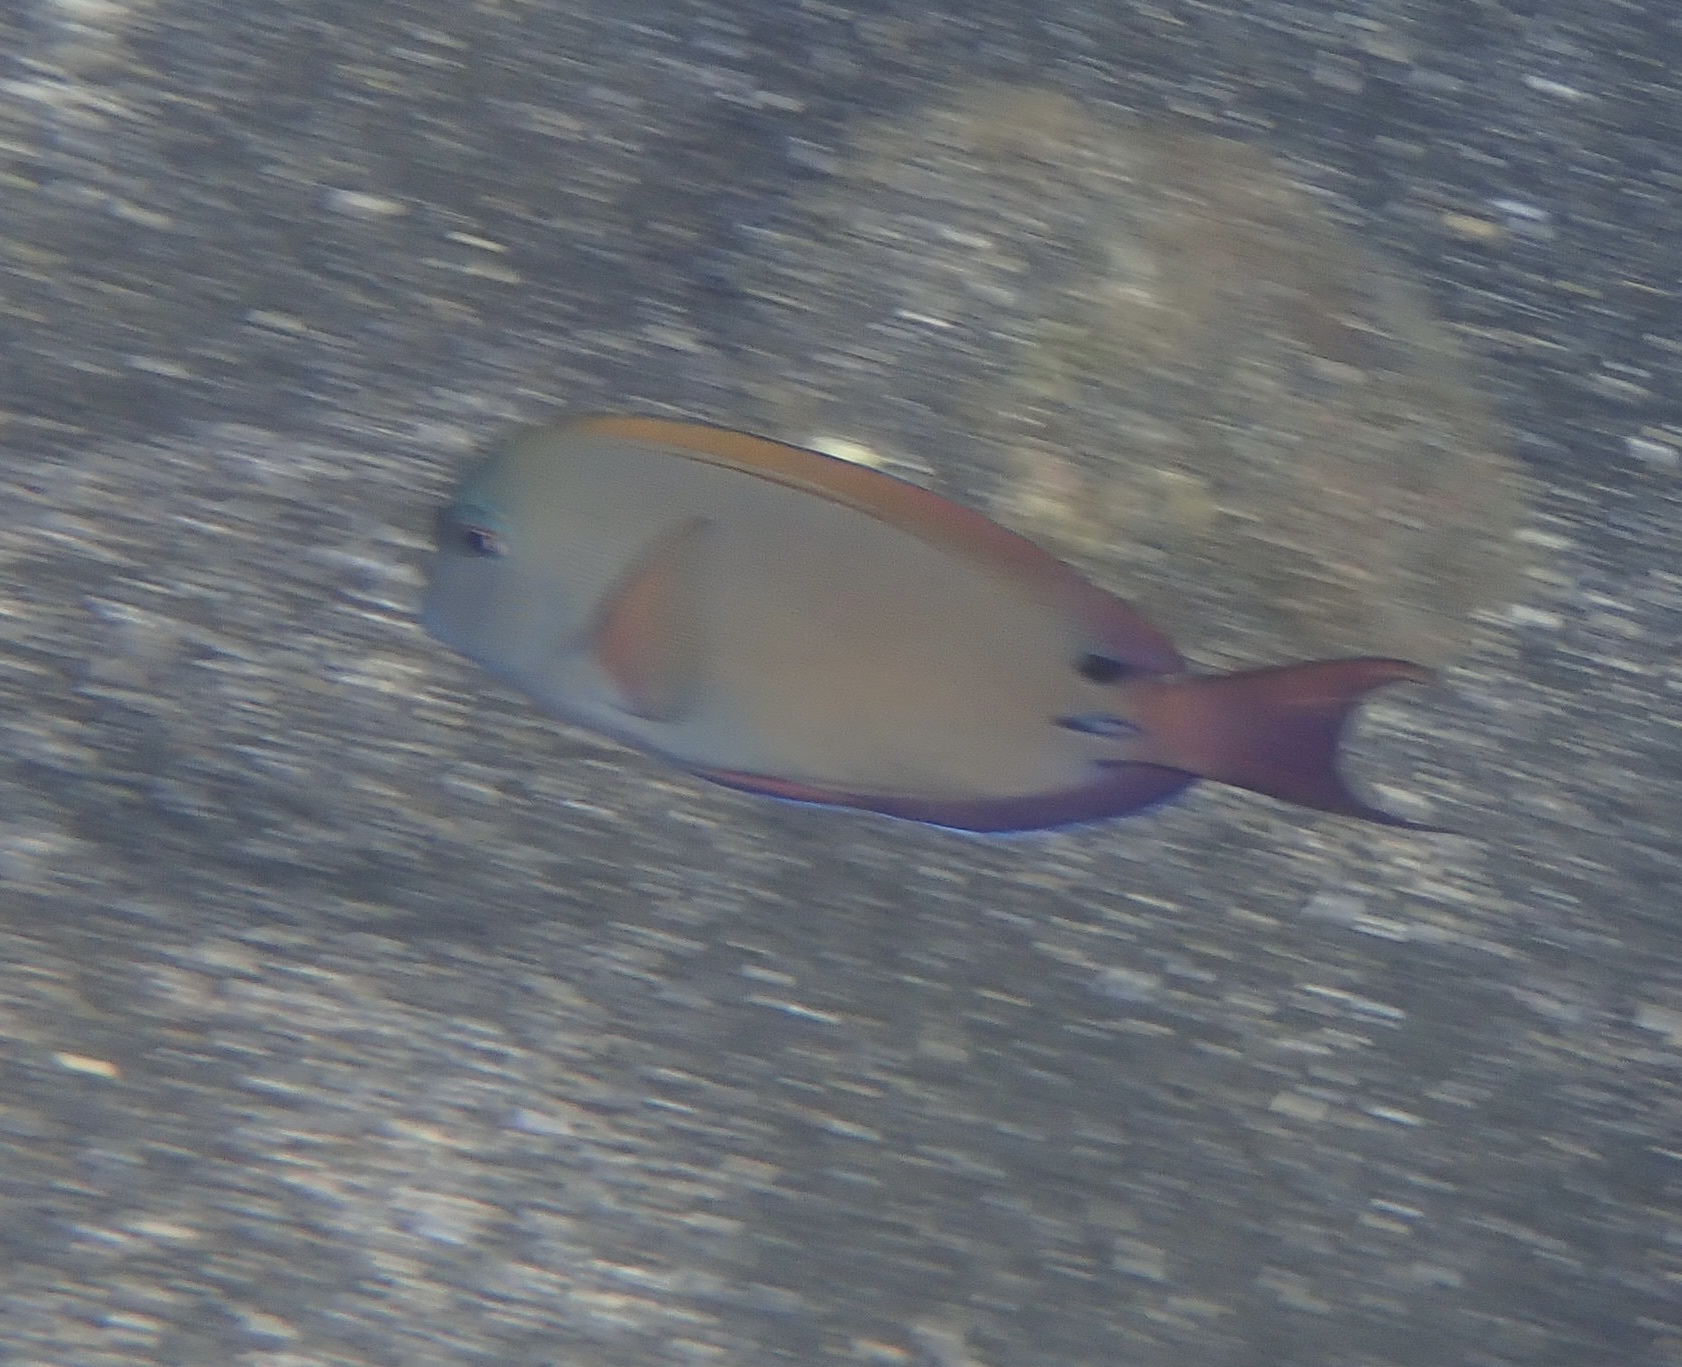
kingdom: Animalia
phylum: Chordata
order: Perciformes
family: Acanthuridae
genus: Acanthurus
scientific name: Acanthurus nigrofuscus
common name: Blackspot surgeonfish
